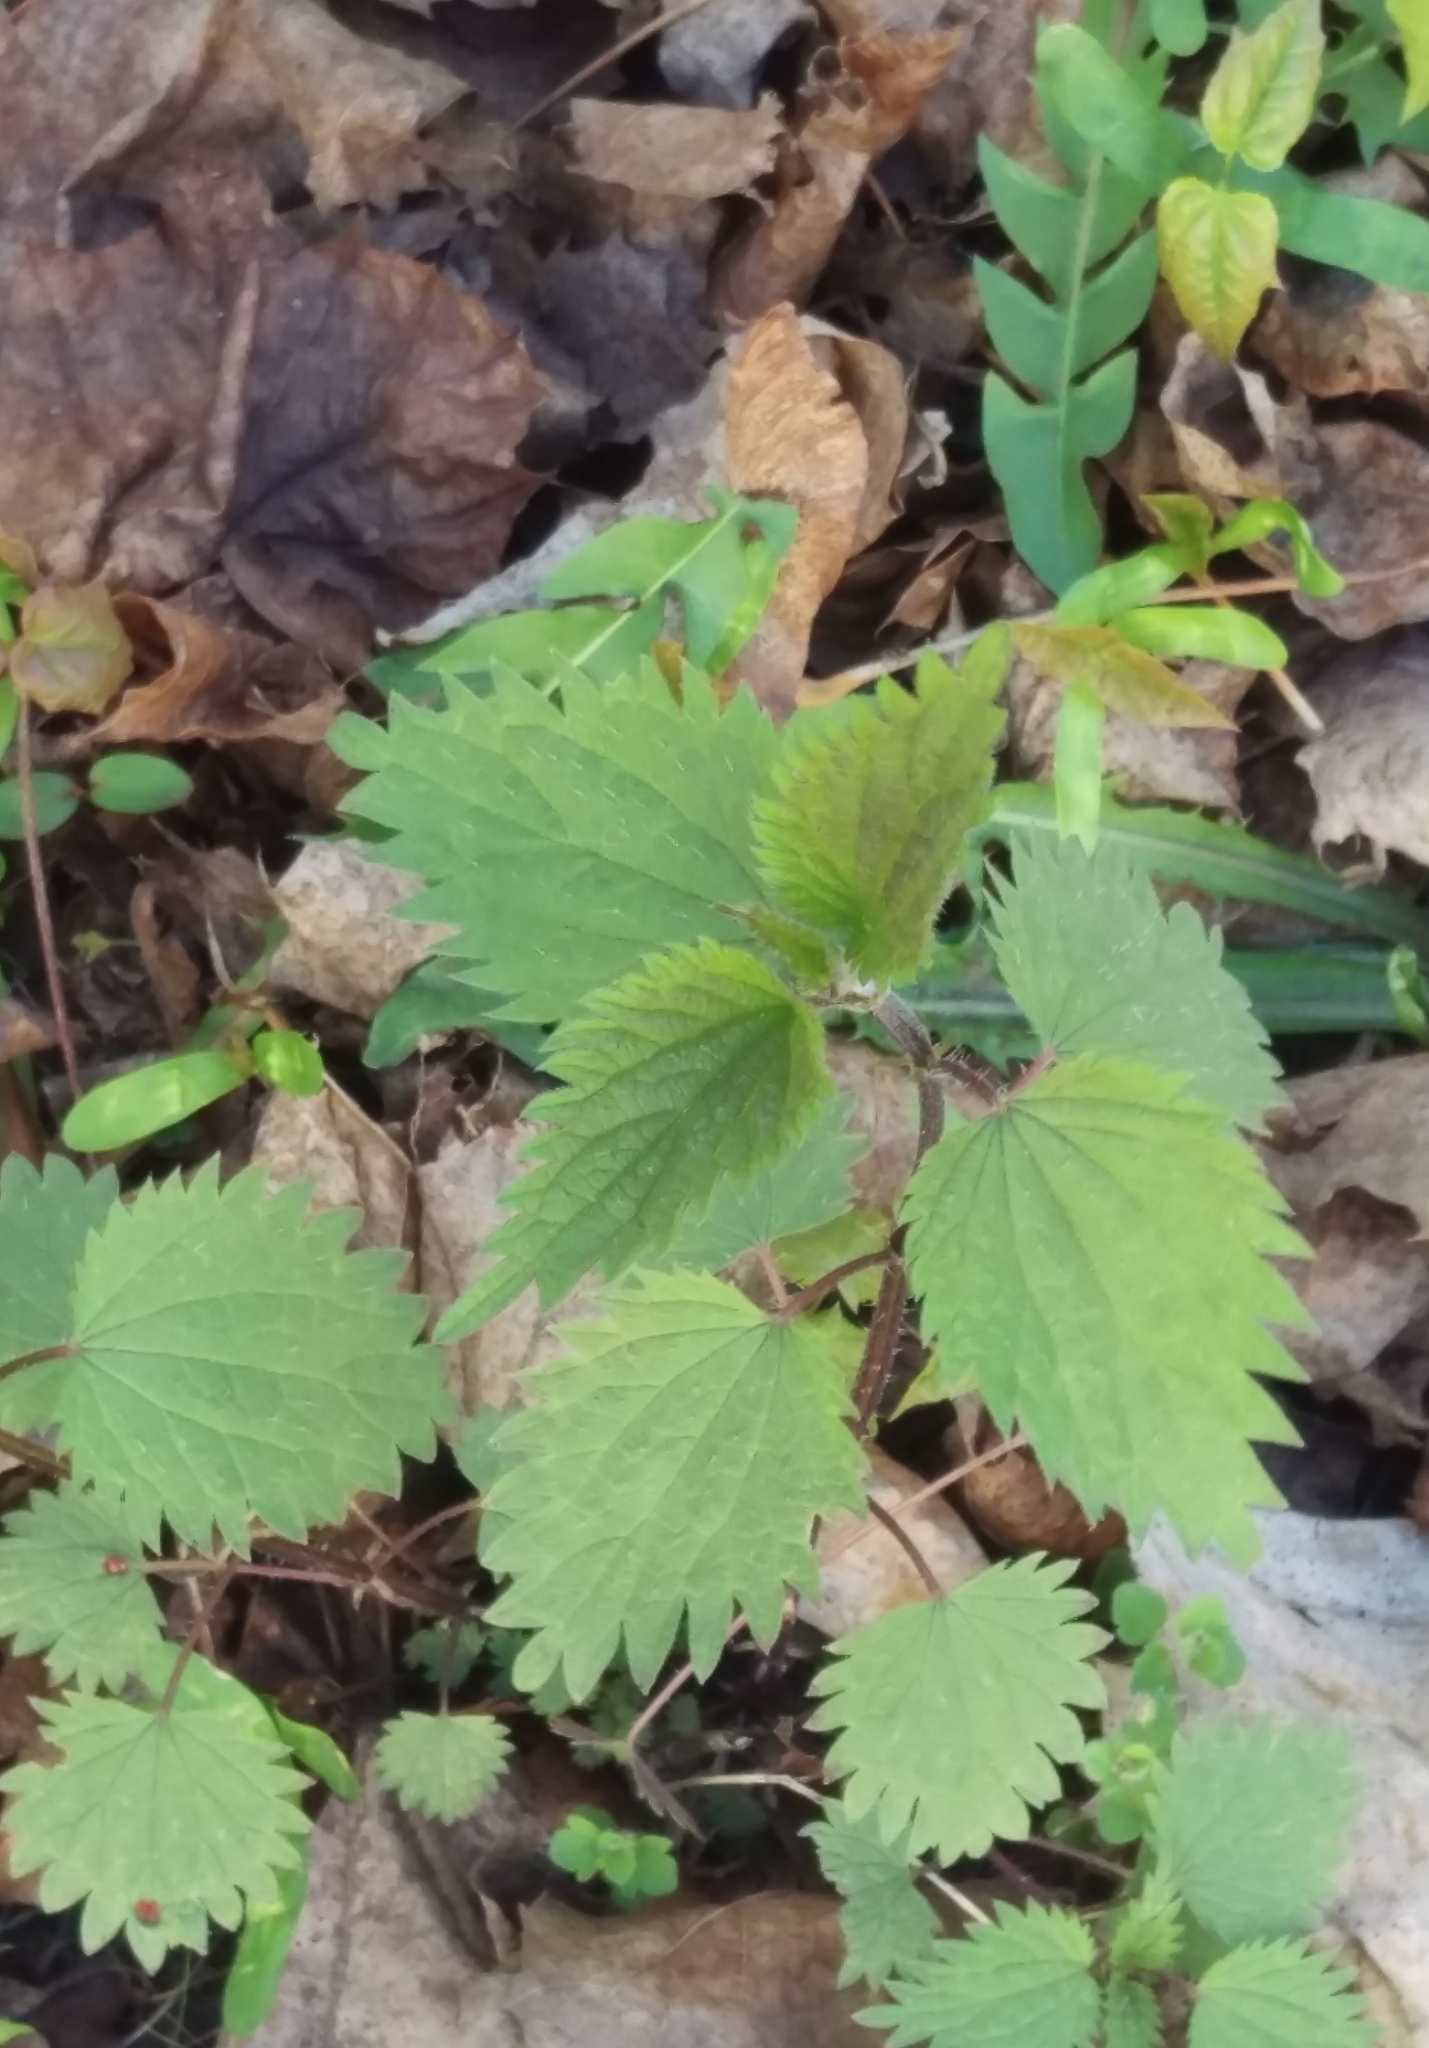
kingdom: Plantae
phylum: Tracheophyta
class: Magnoliopsida
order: Rosales
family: Urticaceae
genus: Urtica
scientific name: Urtica dioica
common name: Common nettle
